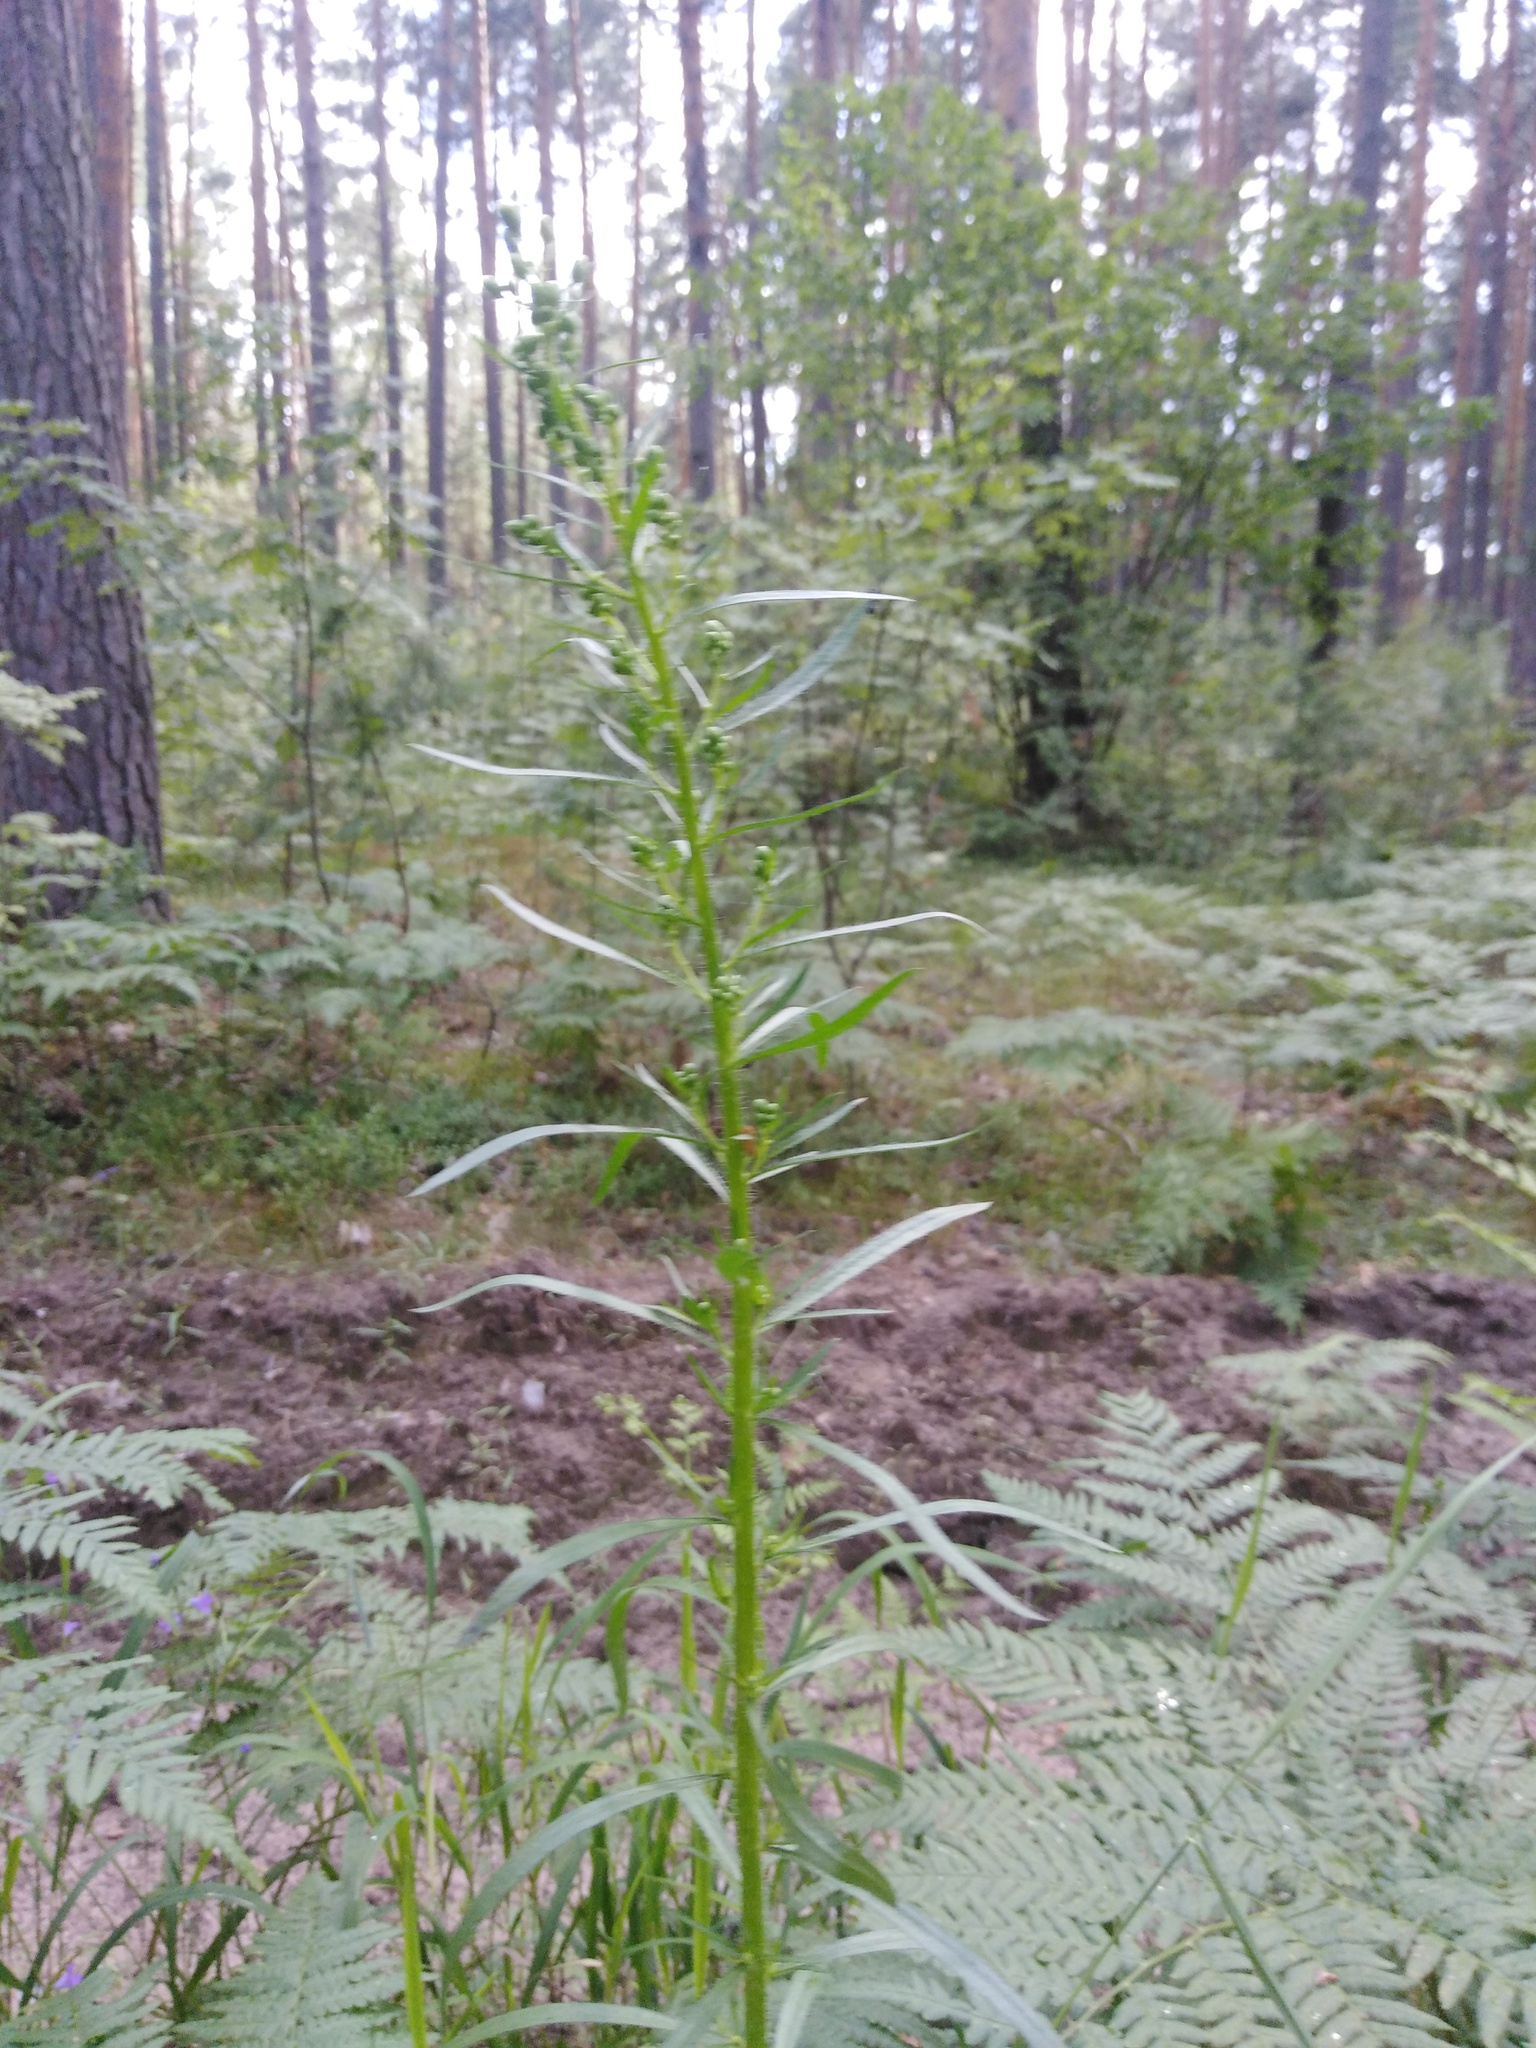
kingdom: Plantae
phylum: Tracheophyta
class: Magnoliopsida
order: Asterales
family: Asteraceae
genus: Erigeron
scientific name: Erigeron canadensis
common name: Canadian fleabane
